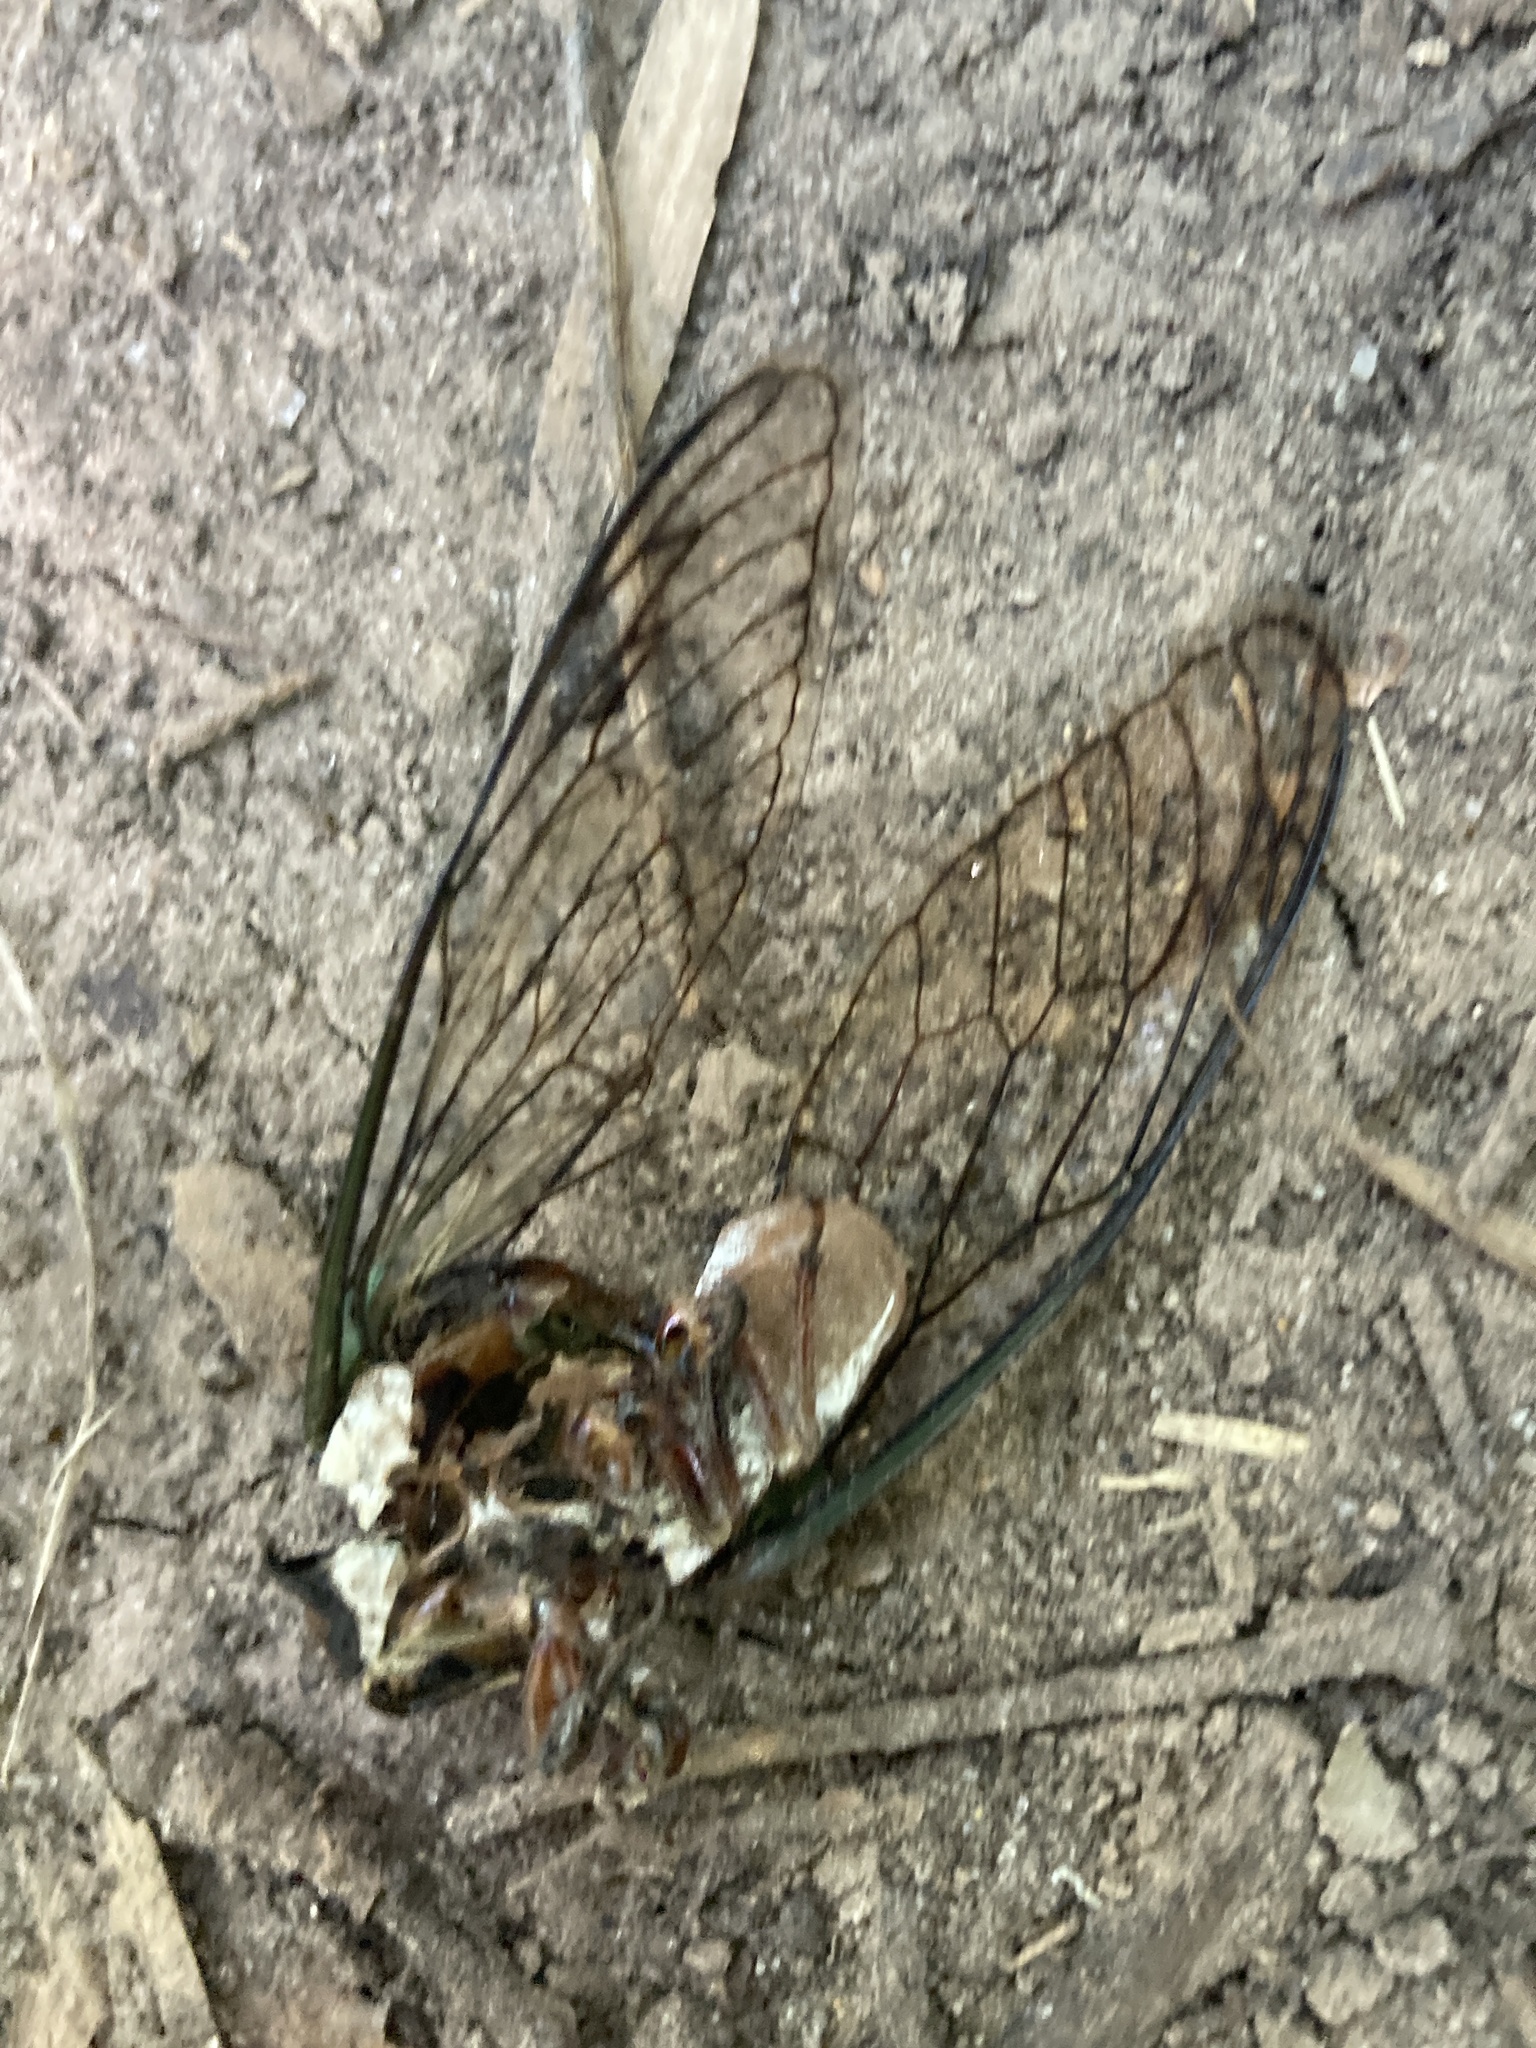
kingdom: Animalia
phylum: Arthropoda
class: Insecta
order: Hemiptera
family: Cicadidae
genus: Neotibicen
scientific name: Neotibicen lyricen
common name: Lyric cicada
